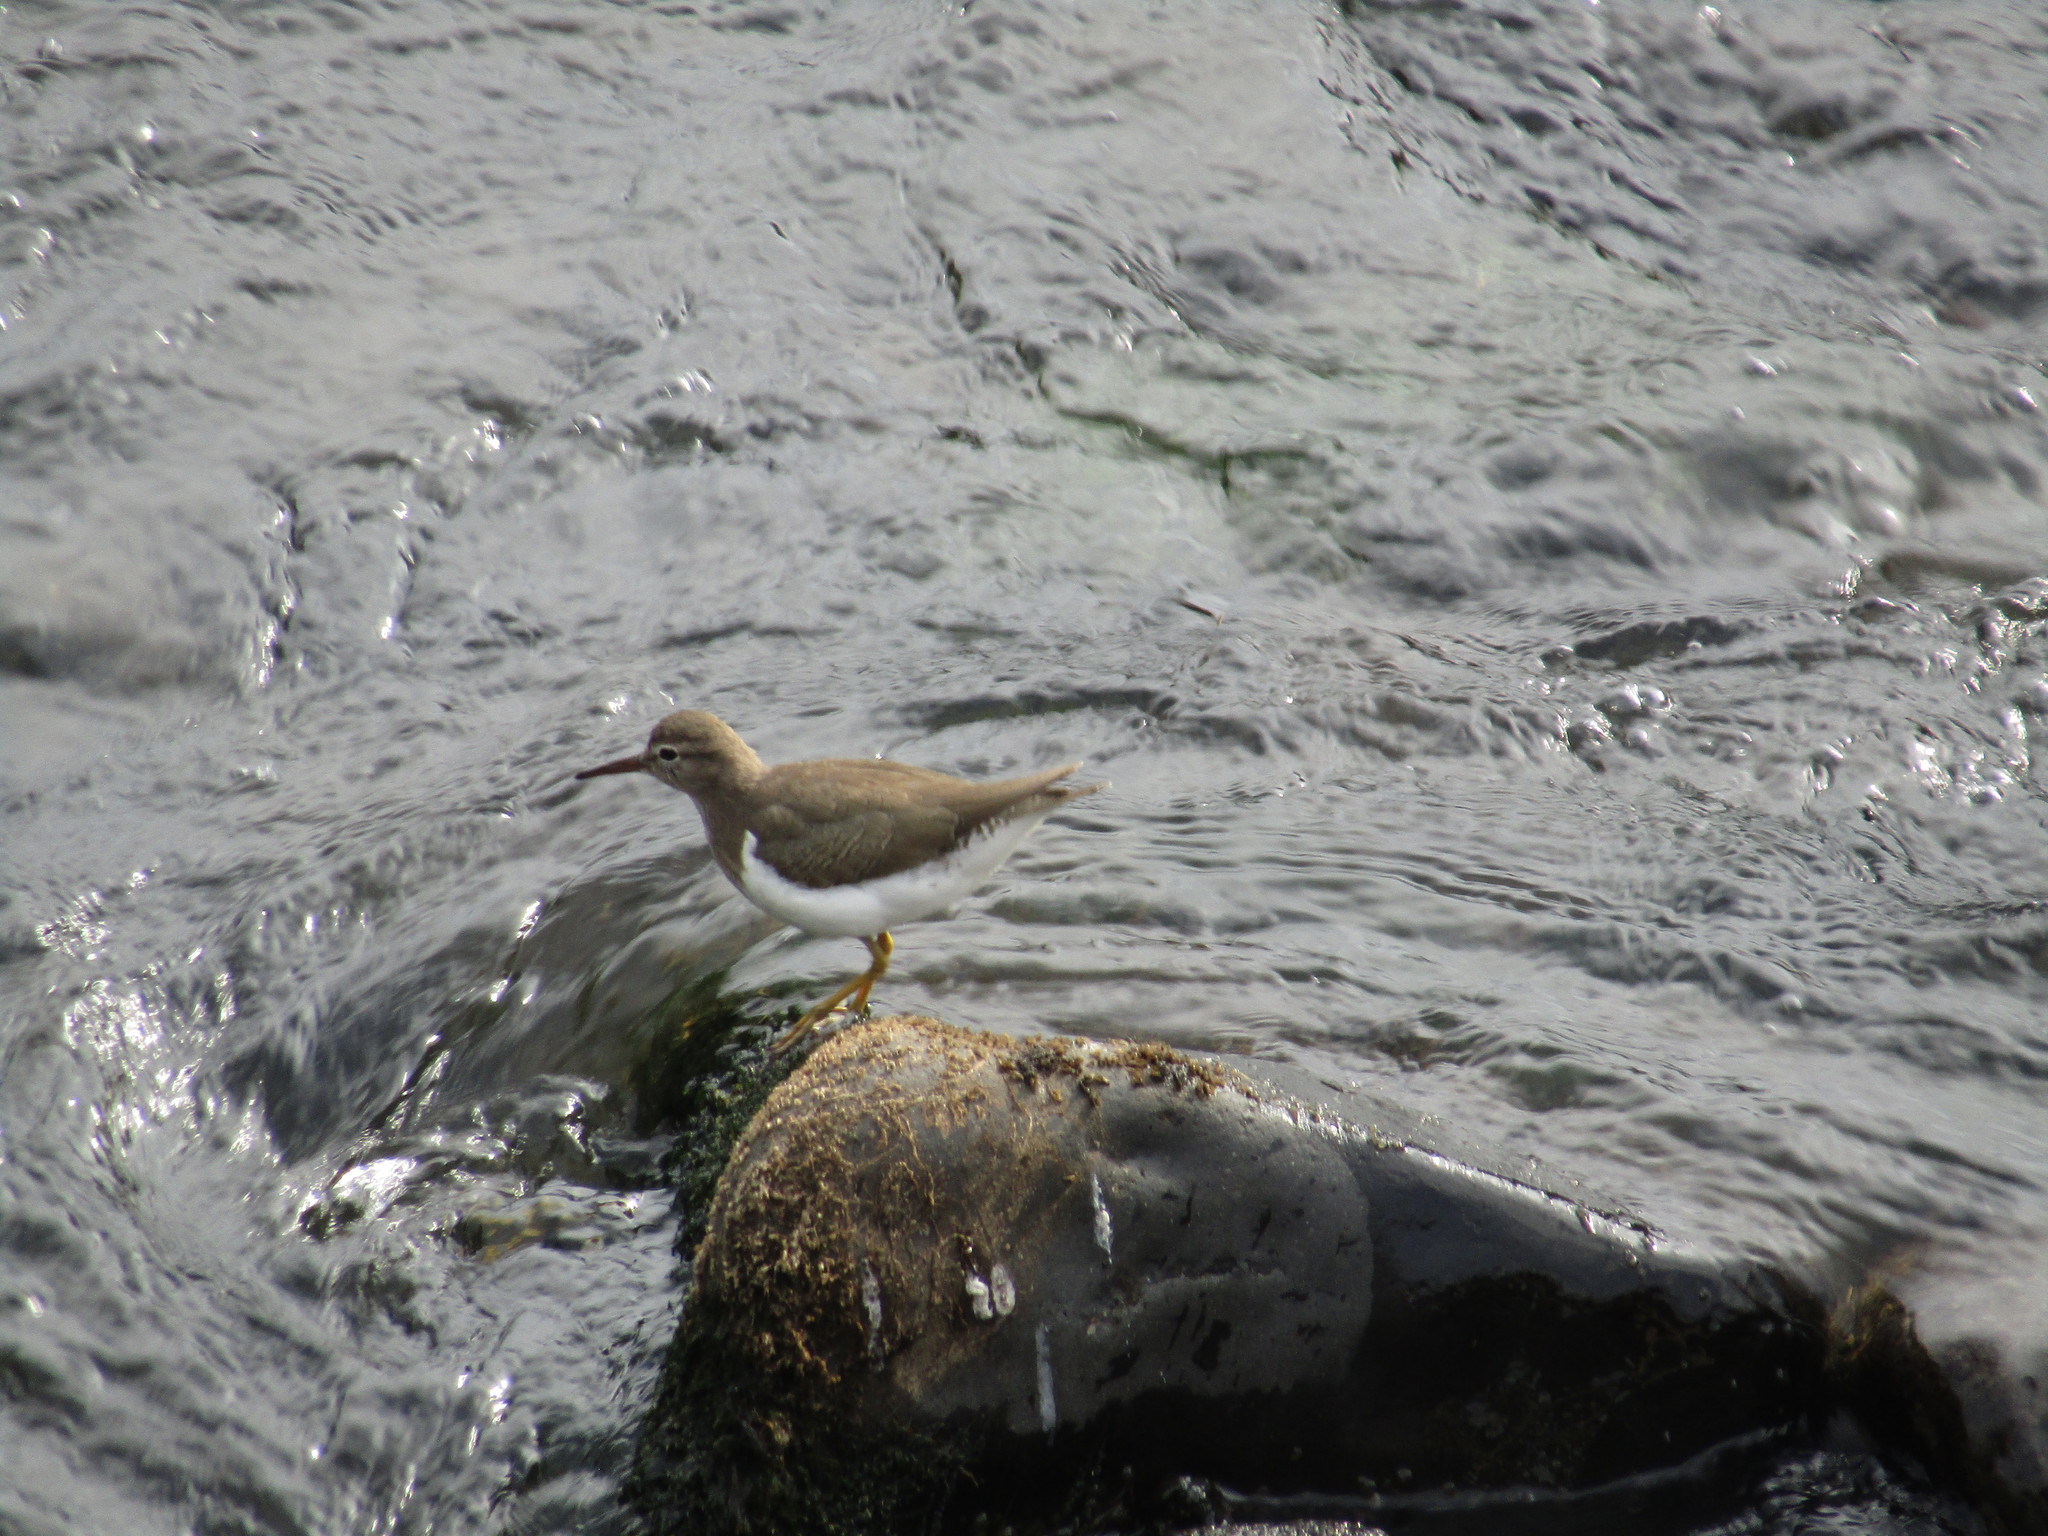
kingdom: Animalia
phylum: Chordata
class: Aves
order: Charadriiformes
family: Scolopacidae
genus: Actitis
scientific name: Actitis macularius
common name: Spotted sandpiper
